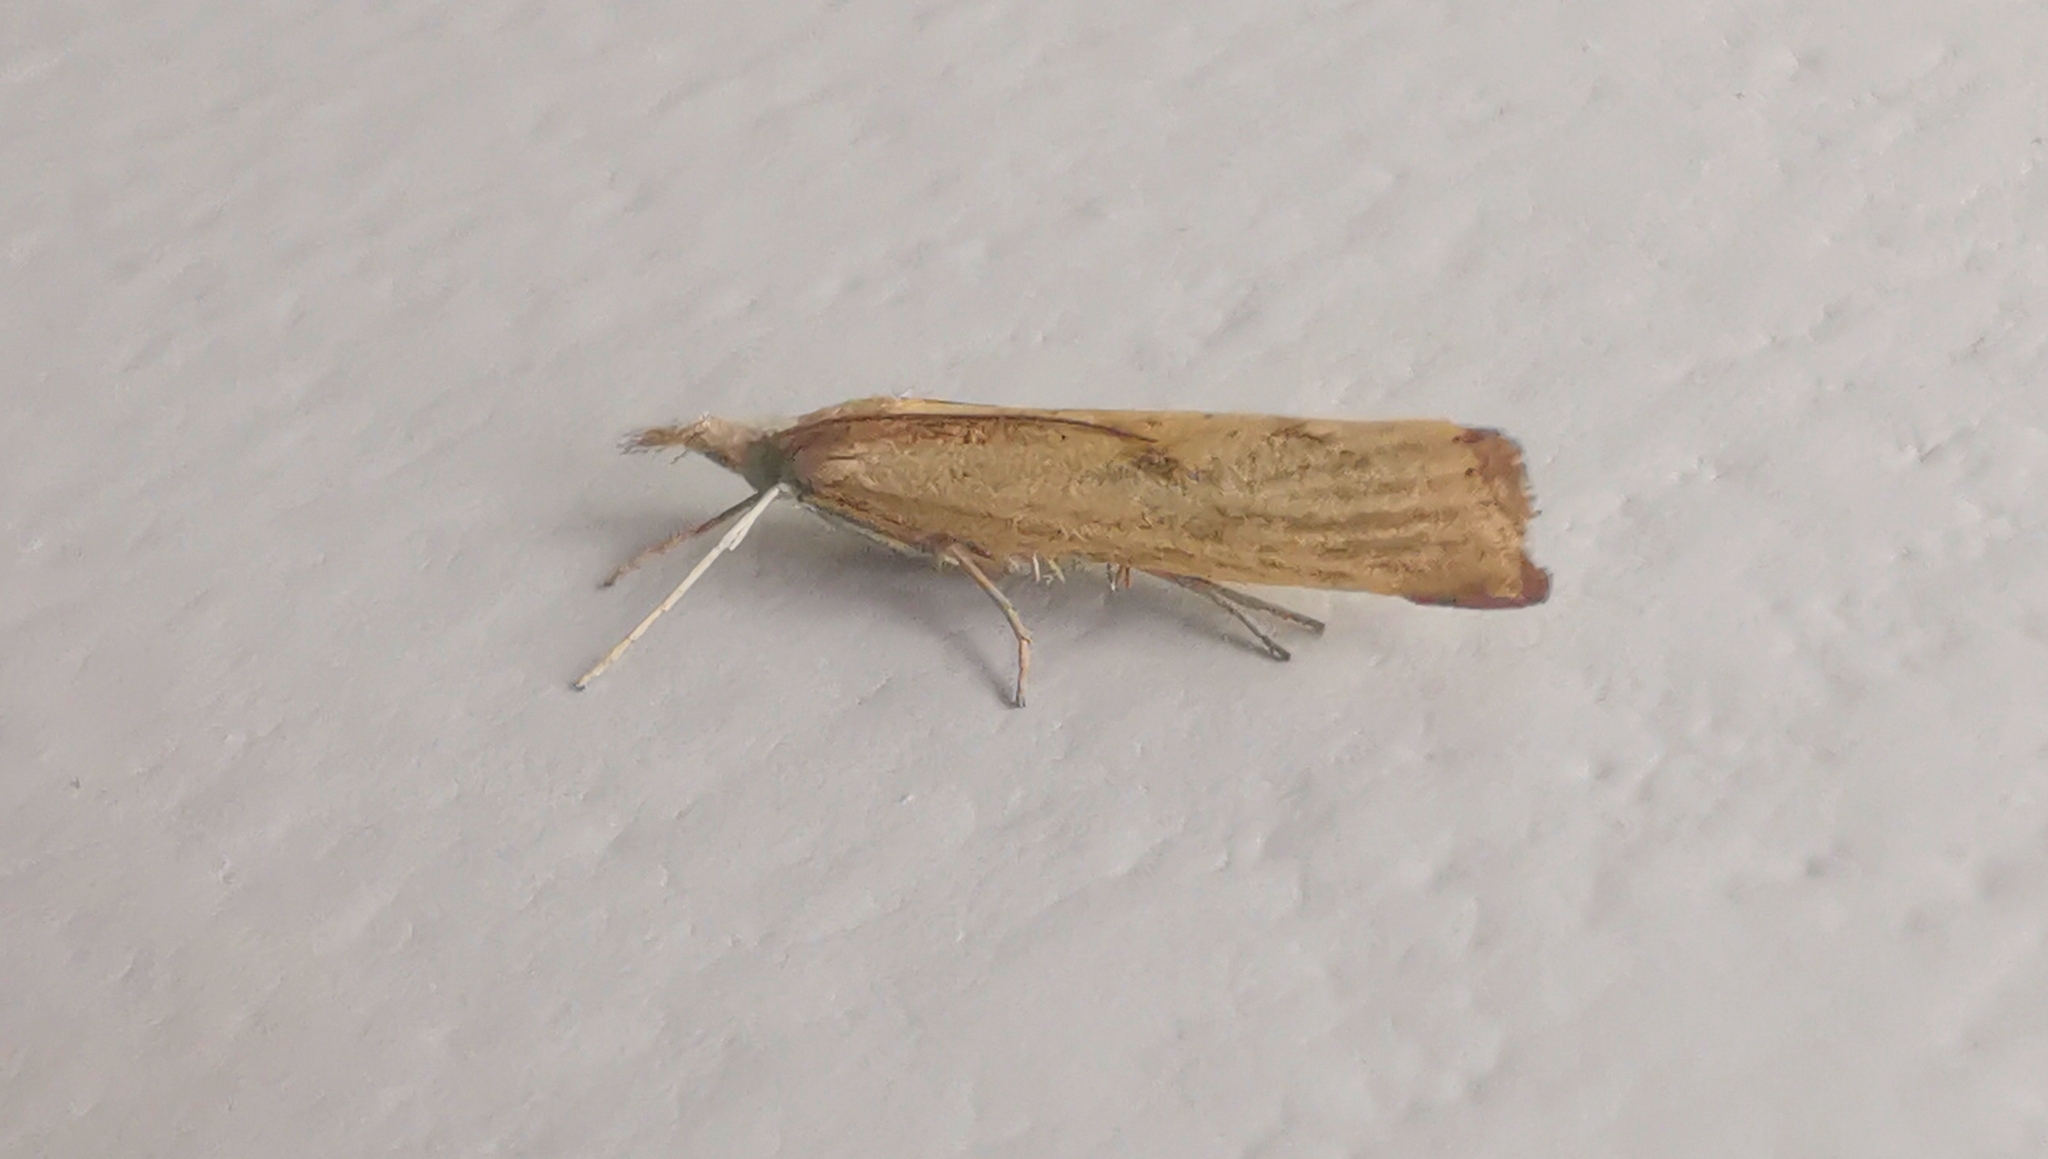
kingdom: Animalia
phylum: Arthropoda
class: Insecta
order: Lepidoptera
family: Crambidae
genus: Agriphila
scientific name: Agriphila inquinatella
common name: Barred grass-veneer
